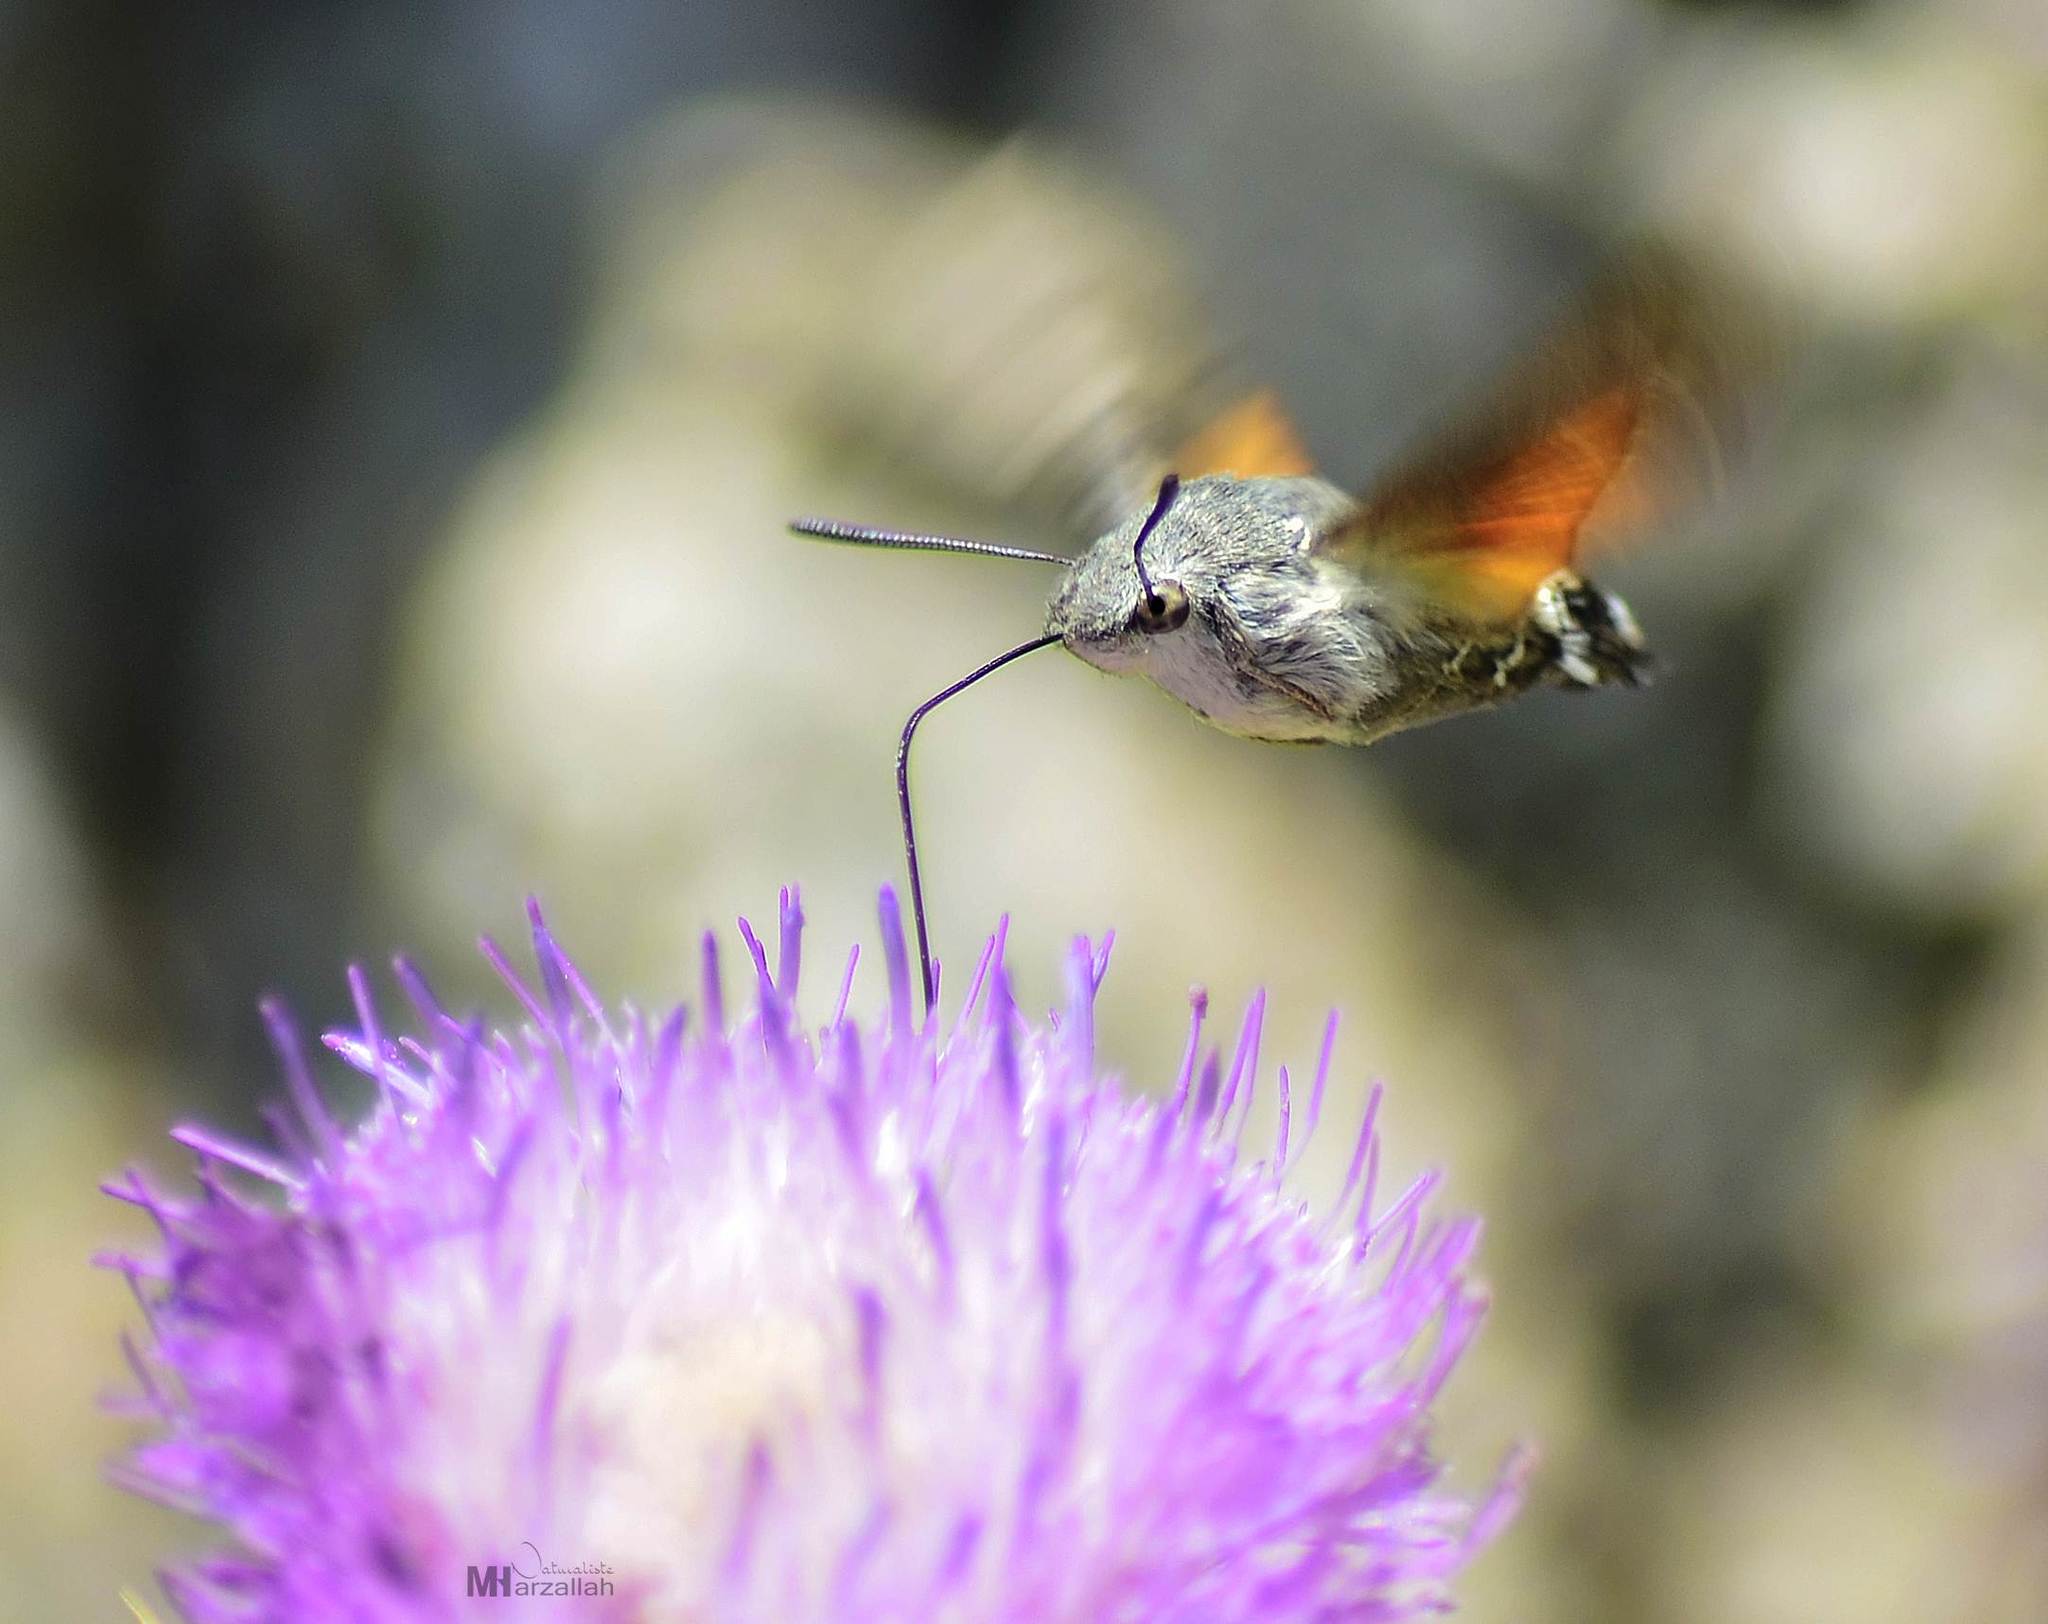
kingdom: Animalia
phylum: Arthropoda
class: Insecta
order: Lepidoptera
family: Sphingidae
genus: Macroglossum
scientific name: Macroglossum stellatarum
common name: Humming-bird hawk-moth
